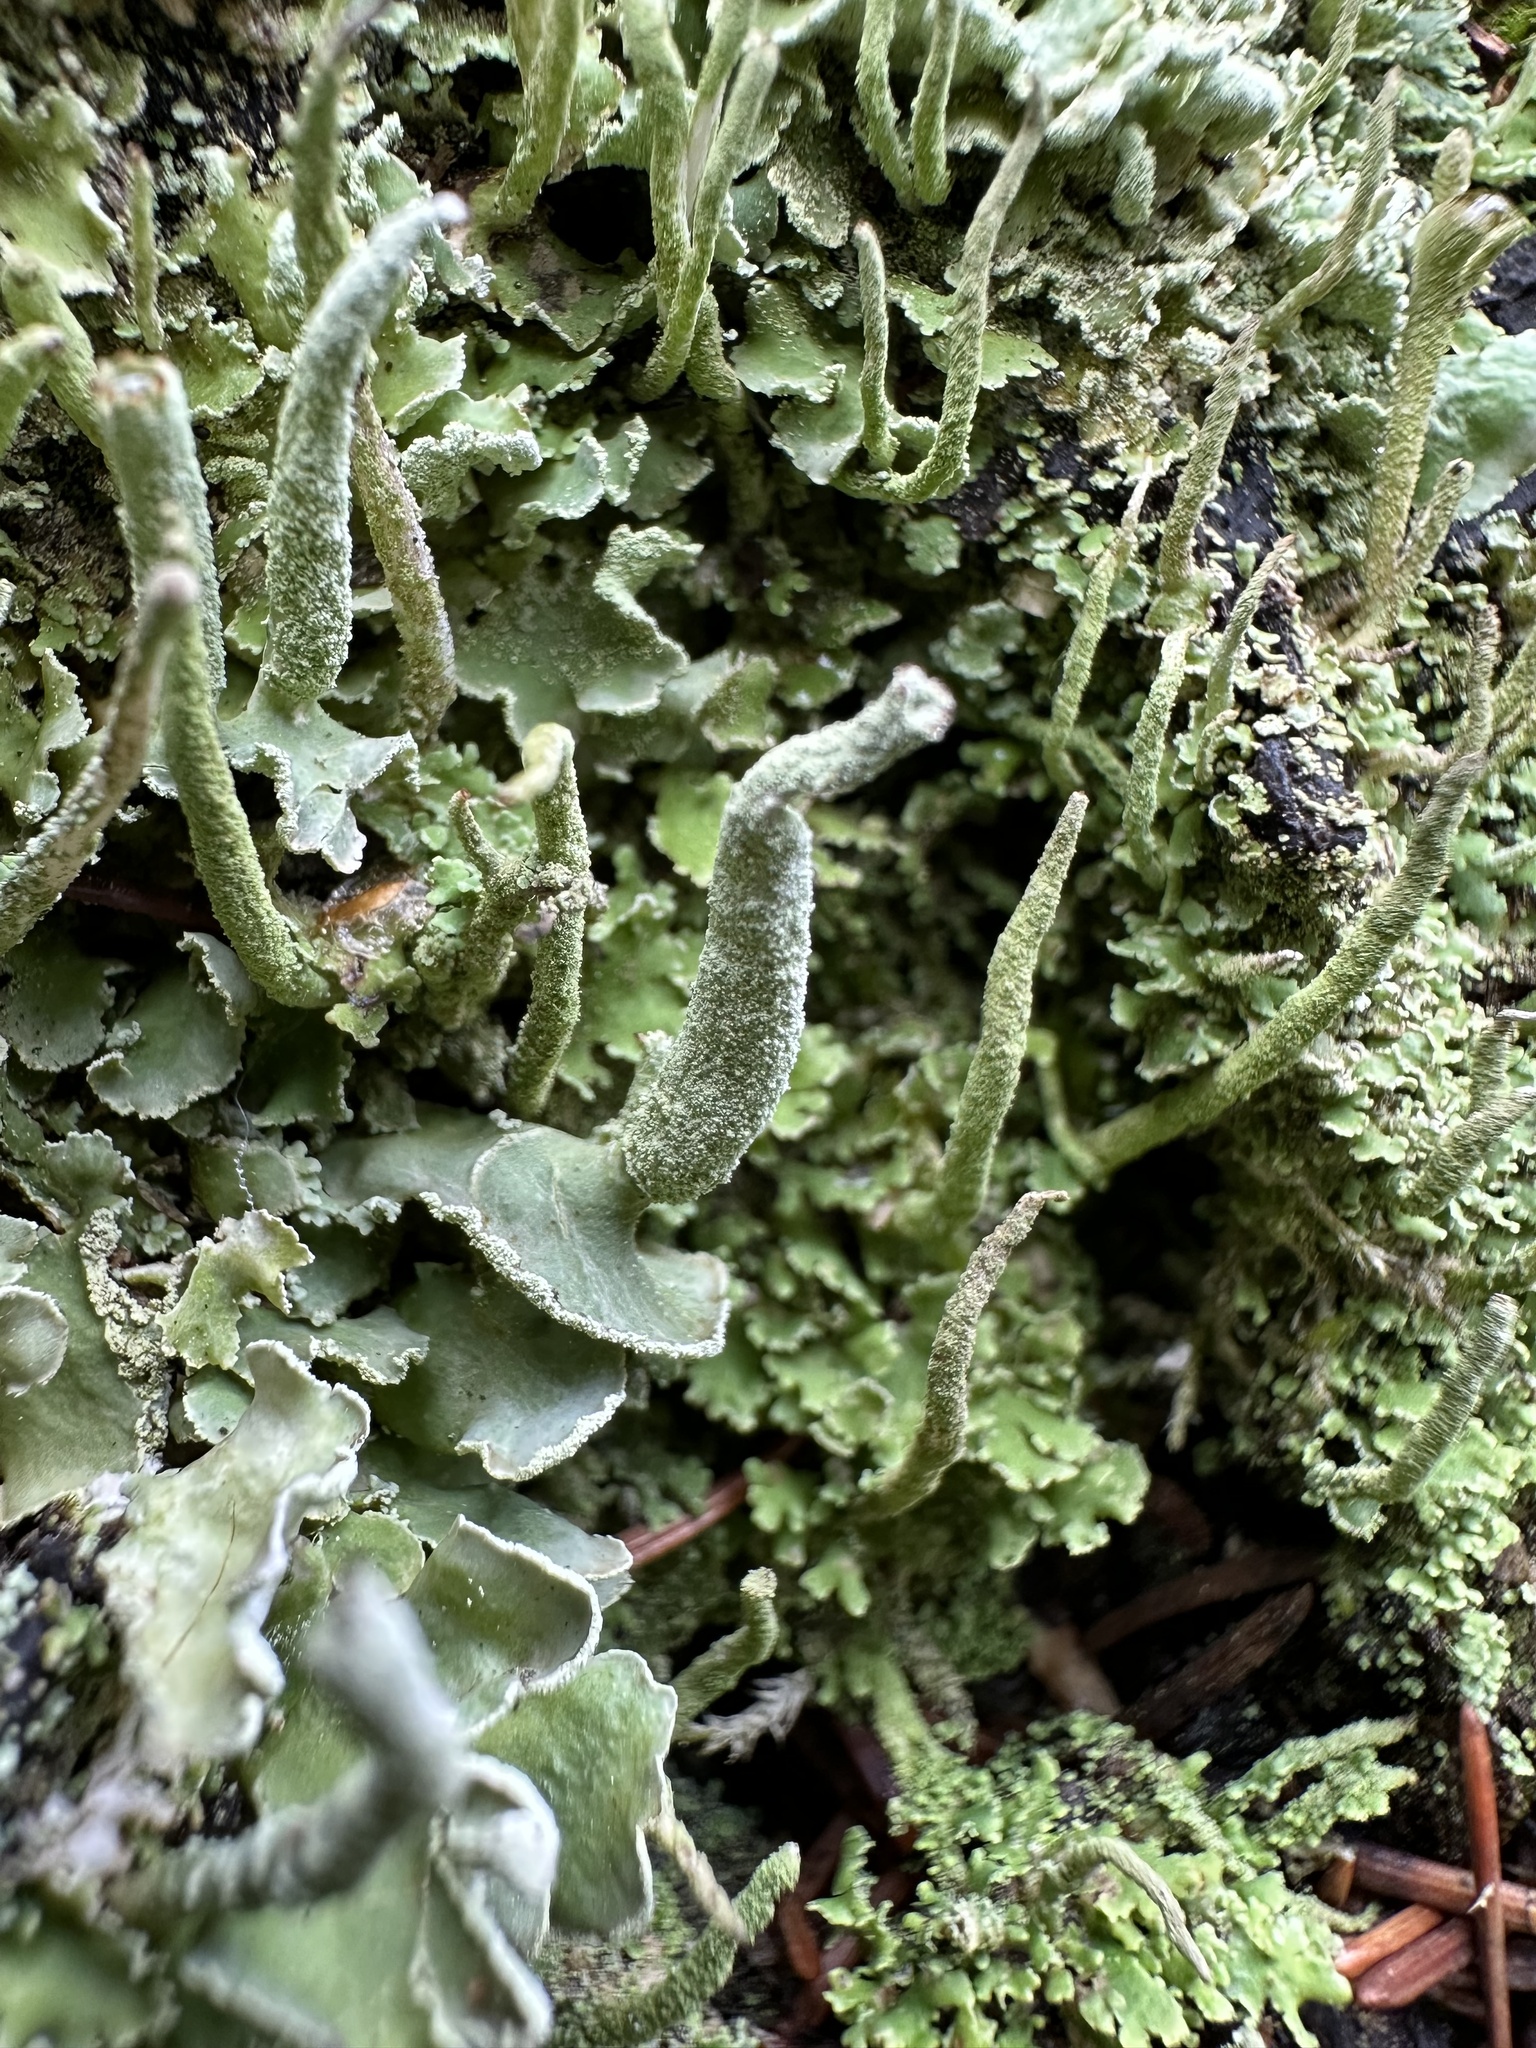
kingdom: Fungi
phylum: Ascomycota
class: Lecanoromycetes
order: Lecanorales
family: Cladoniaceae
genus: Cladonia
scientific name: Cladonia digitata
